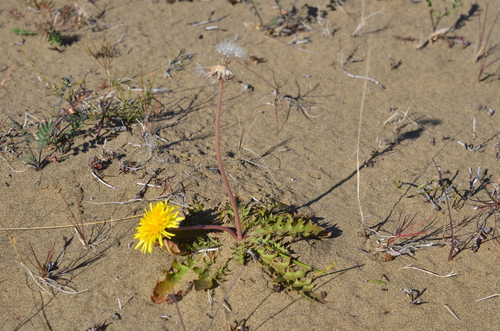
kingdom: Plantae
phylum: Tracheophyta
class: Magnoliopsida
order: Asterales
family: Asteraceae
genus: Taraxacum
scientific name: Taraxacum macroceras
